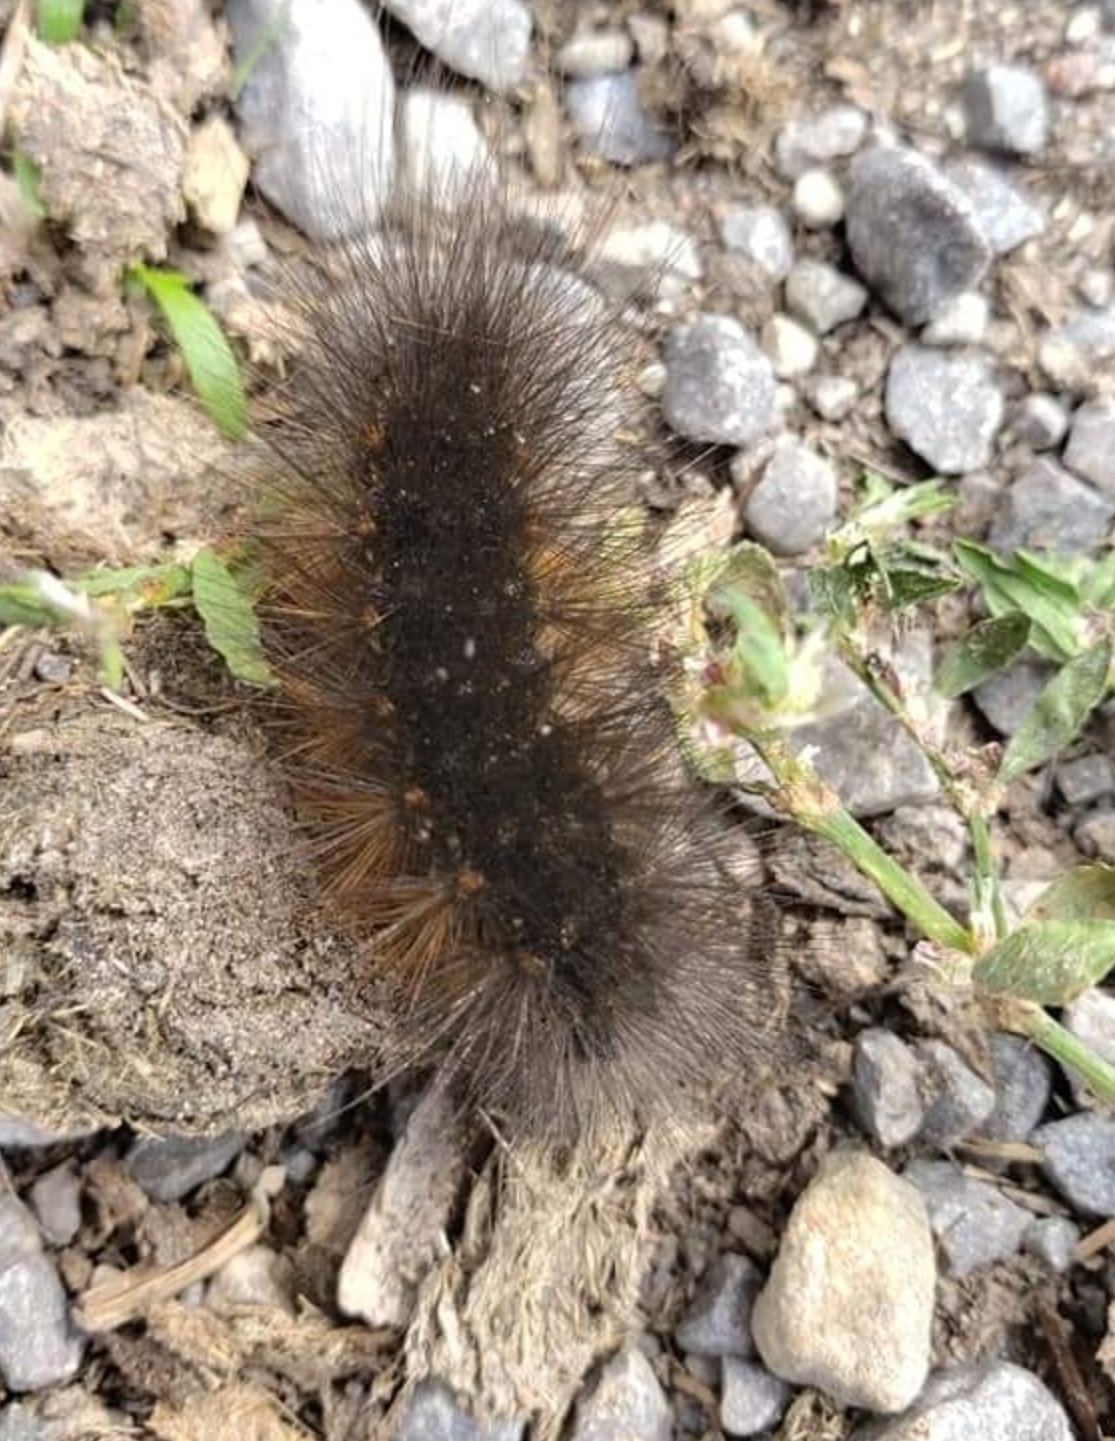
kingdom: Animalia
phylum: Arthropoda
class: Insecta
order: Lepidoptera
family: Erebidae
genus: Estigmene
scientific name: Estigmene acrea
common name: Salt marsh moth
